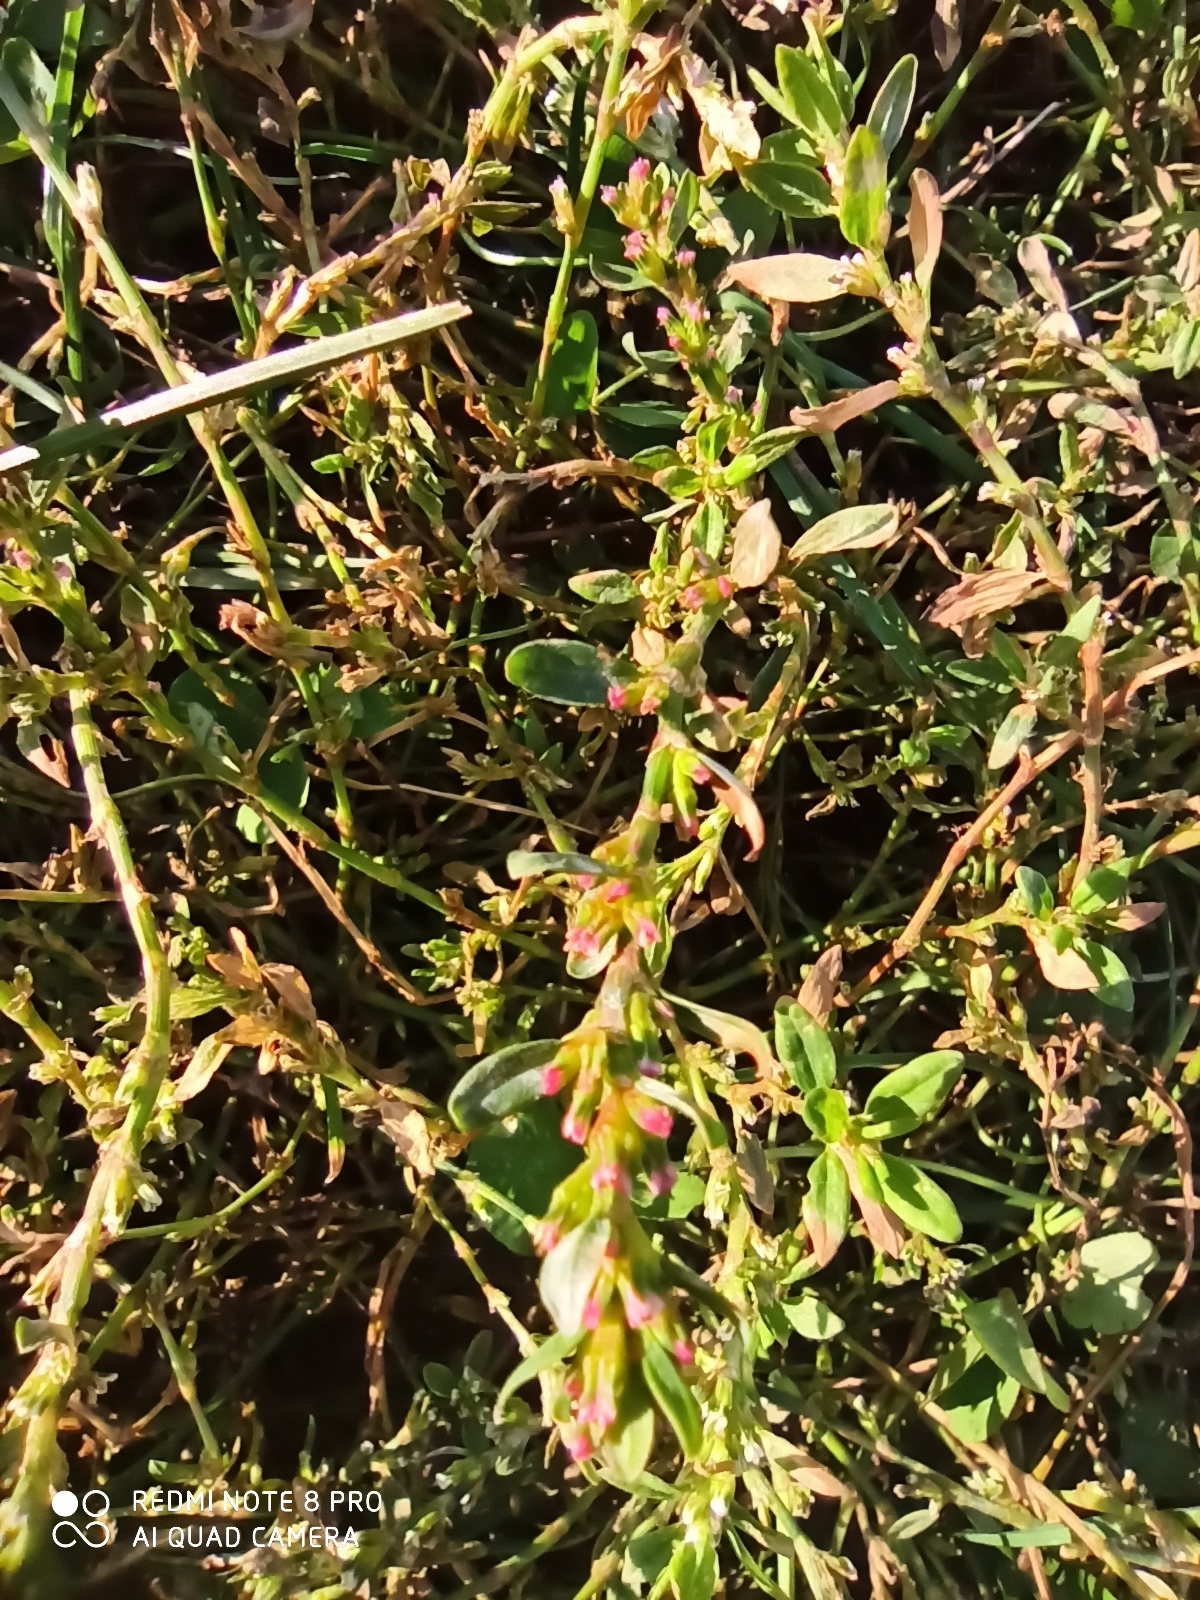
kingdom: Plantae
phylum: Tracheophyta
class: Magnoliopsida
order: Caryophyllales
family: Polygonaceae
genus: Polygonum
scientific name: Polygonum
